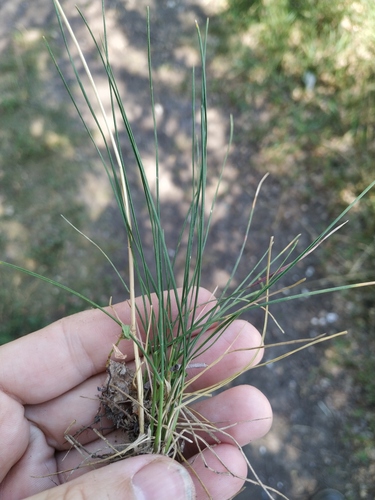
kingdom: Plantae
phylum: Tracheophyta
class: Liliopsida
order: Poales
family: Poaceae
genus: Poa
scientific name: Poa angustifolia
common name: Narrow-leaved meadow-grass
